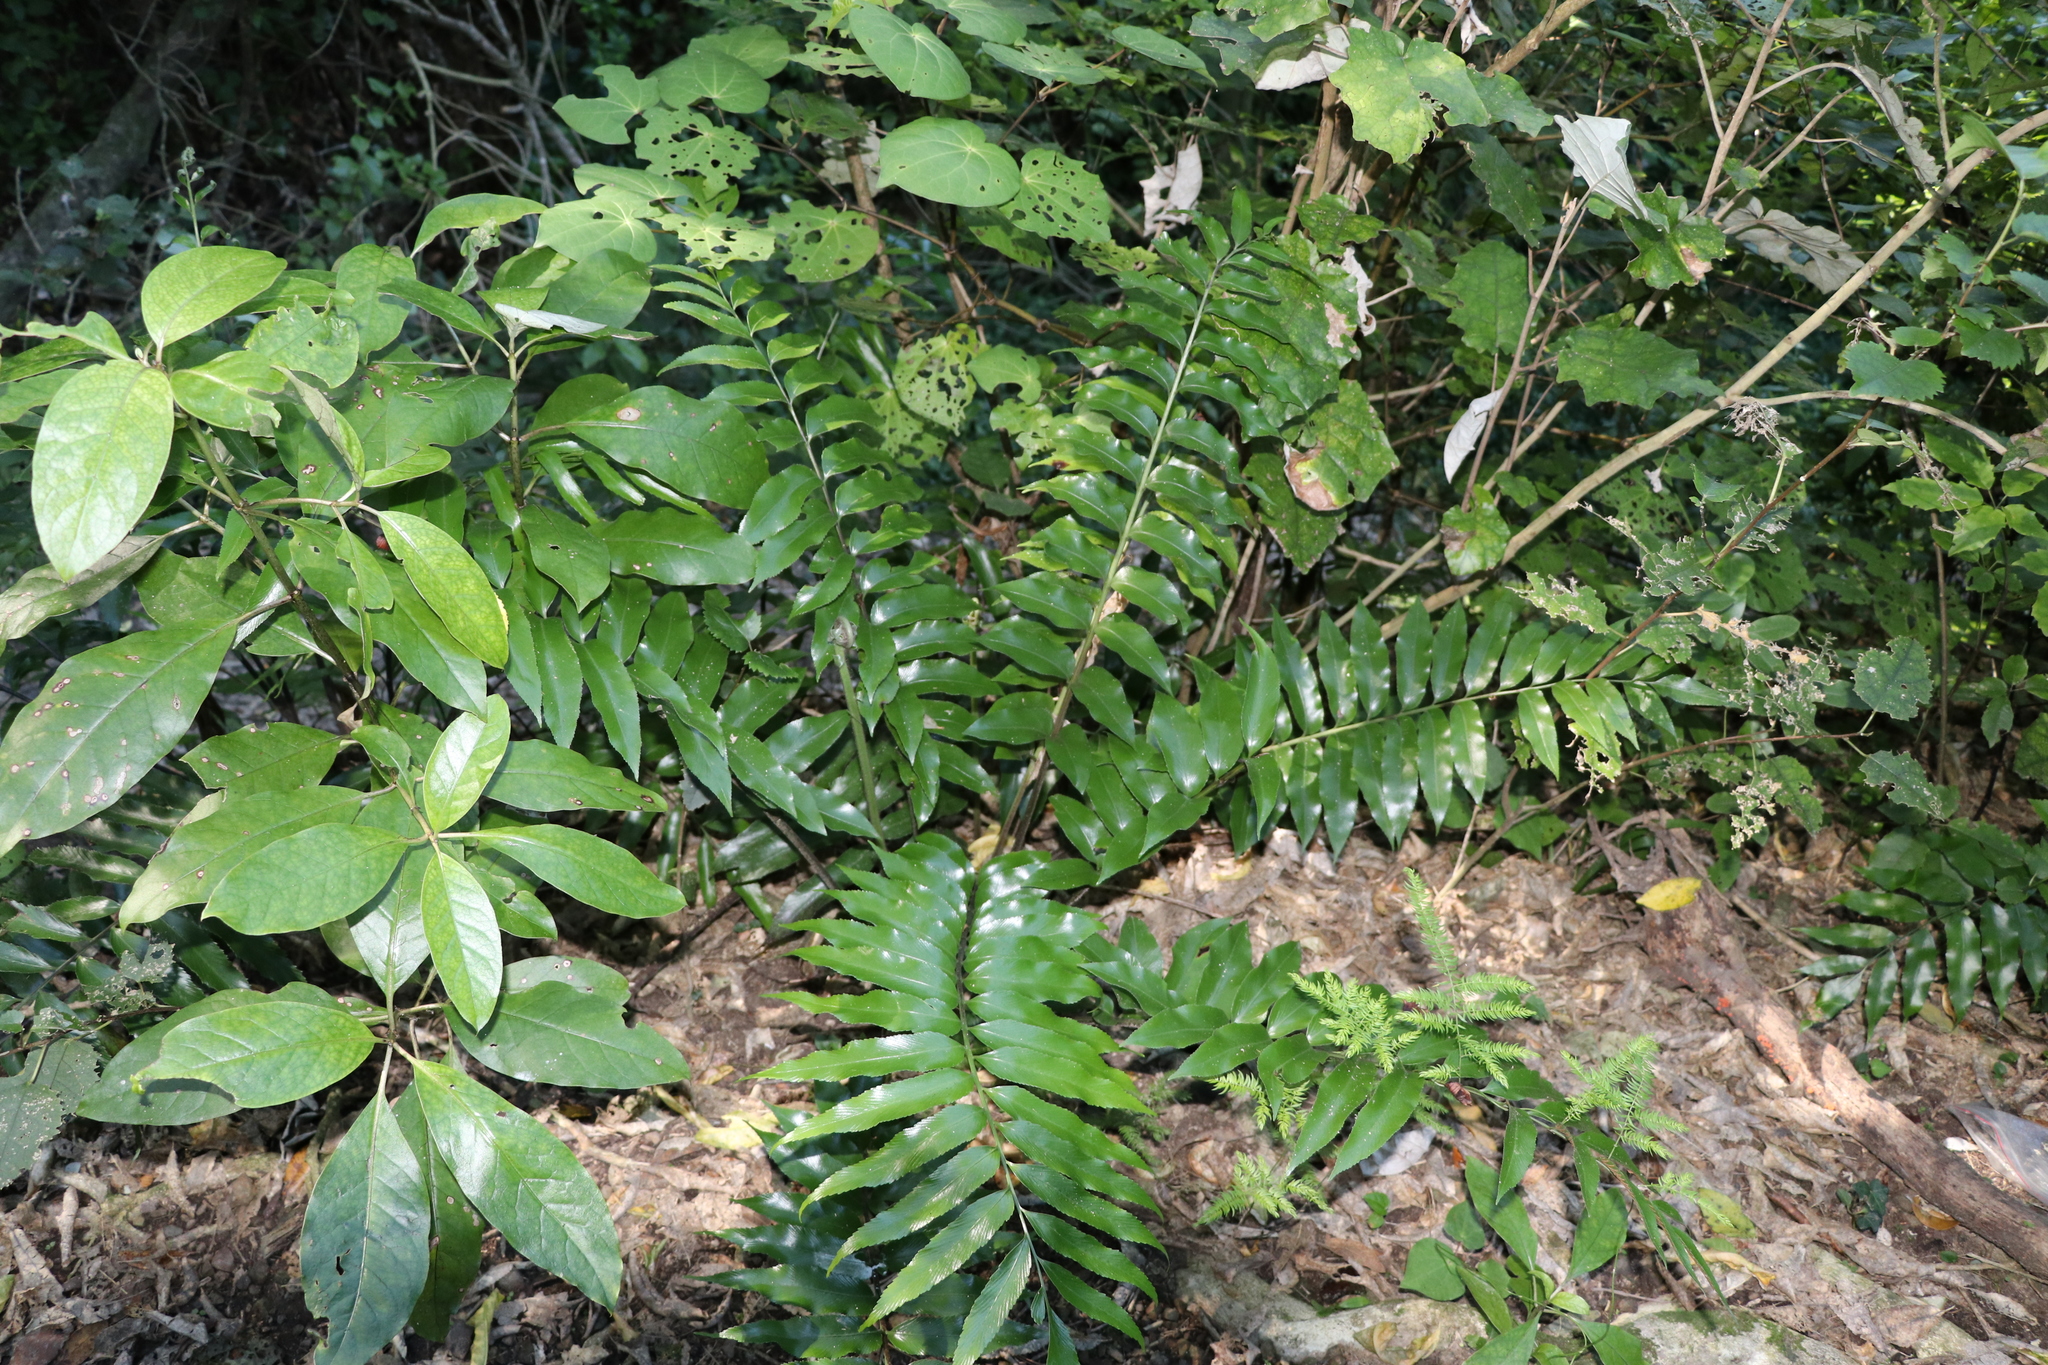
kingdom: Plantae
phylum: Tracheophyta
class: Polypodiopsida
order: Polypodiales
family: Aspleniaceae
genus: Asplenium
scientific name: Asplenium oblongifolium
